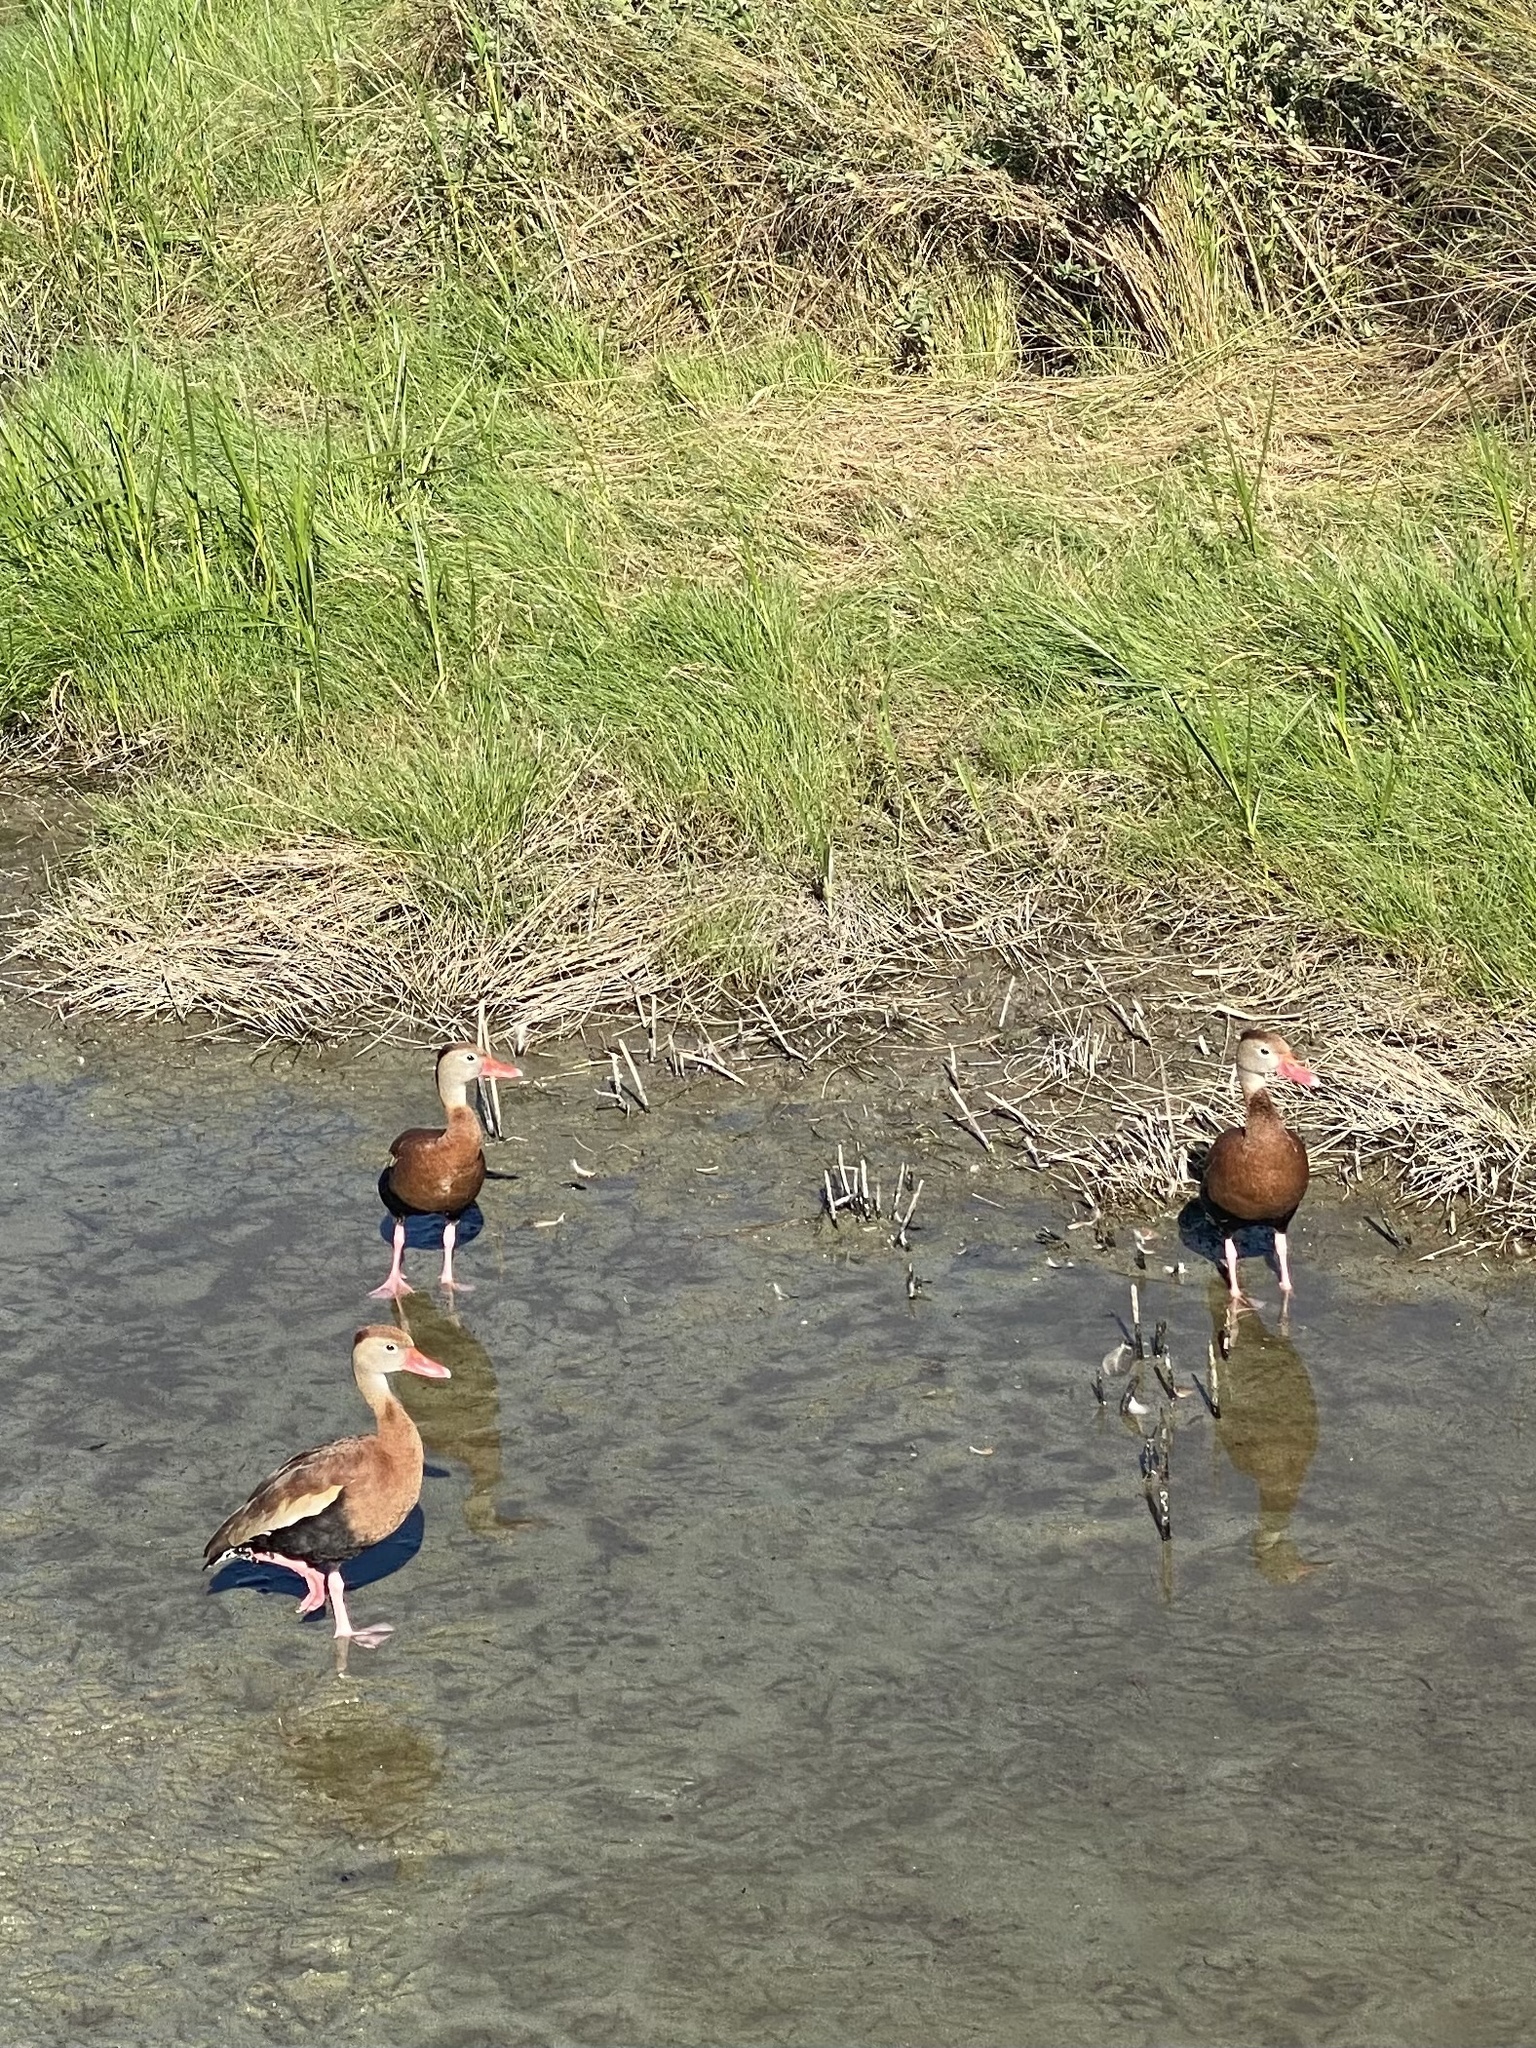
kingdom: Animalia
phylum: Chordata
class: Aves
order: Anseriformes
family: Anatidae
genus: Dendrocygna
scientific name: Dendrocygna autumnalis
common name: Black-bellied whistling duck
